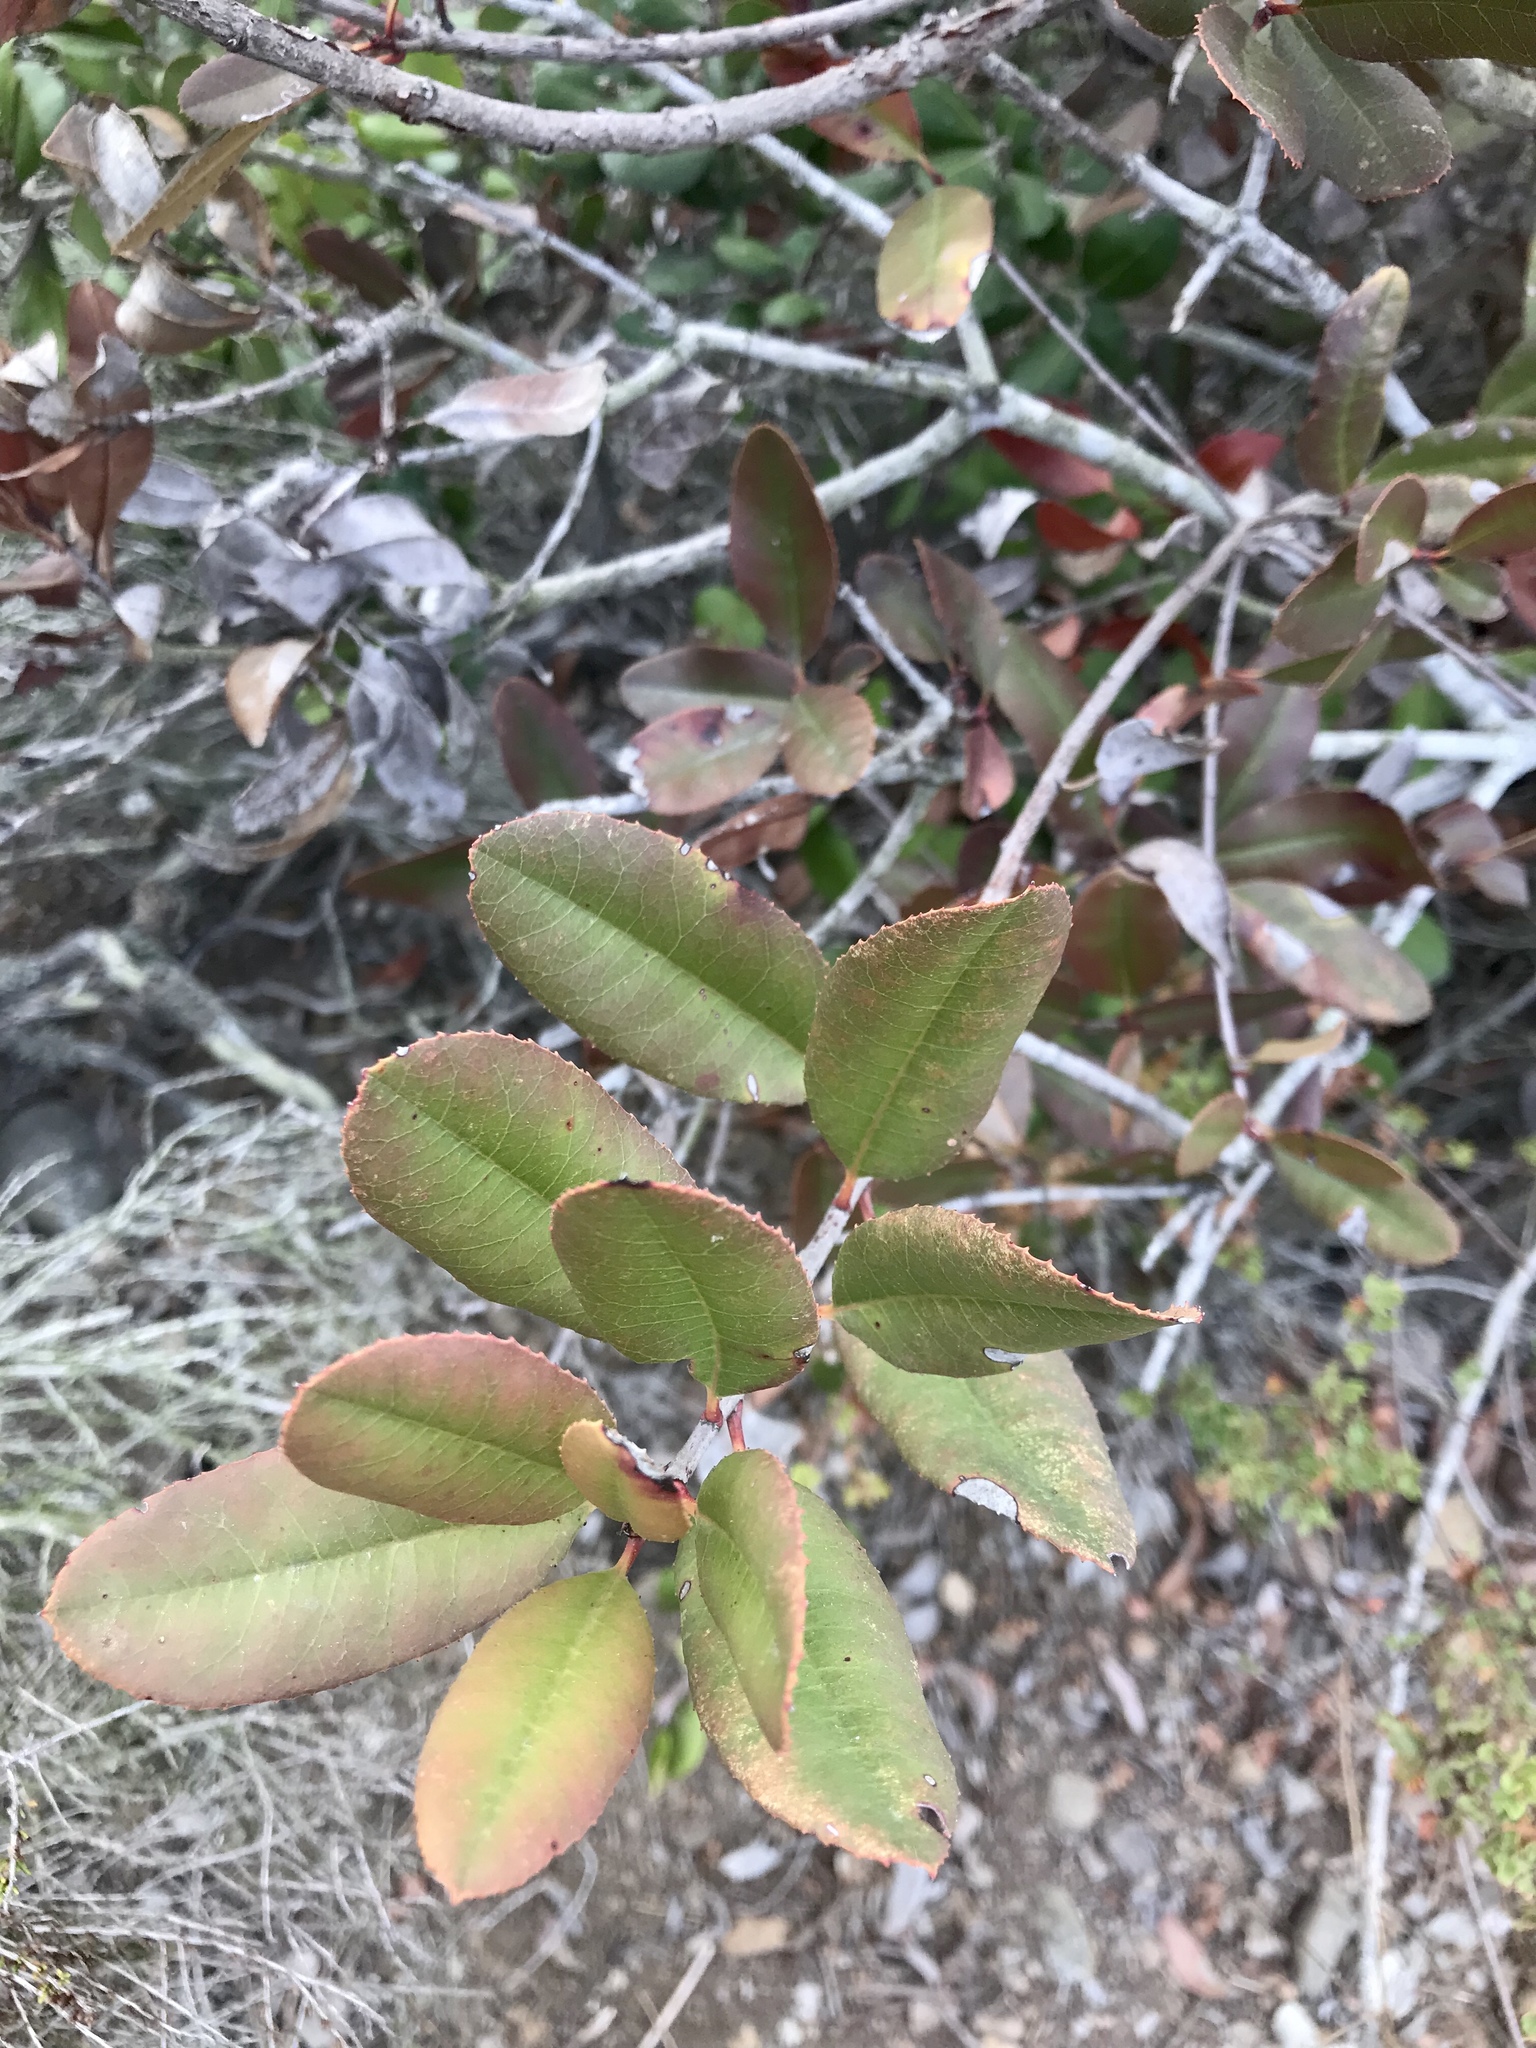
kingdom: Plantae
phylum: Tracheophyta
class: Magnoliopsida
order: Rosales
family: Rosaceae
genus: Heteromeles
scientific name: Heteromeles arbutifolia
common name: California-holly
